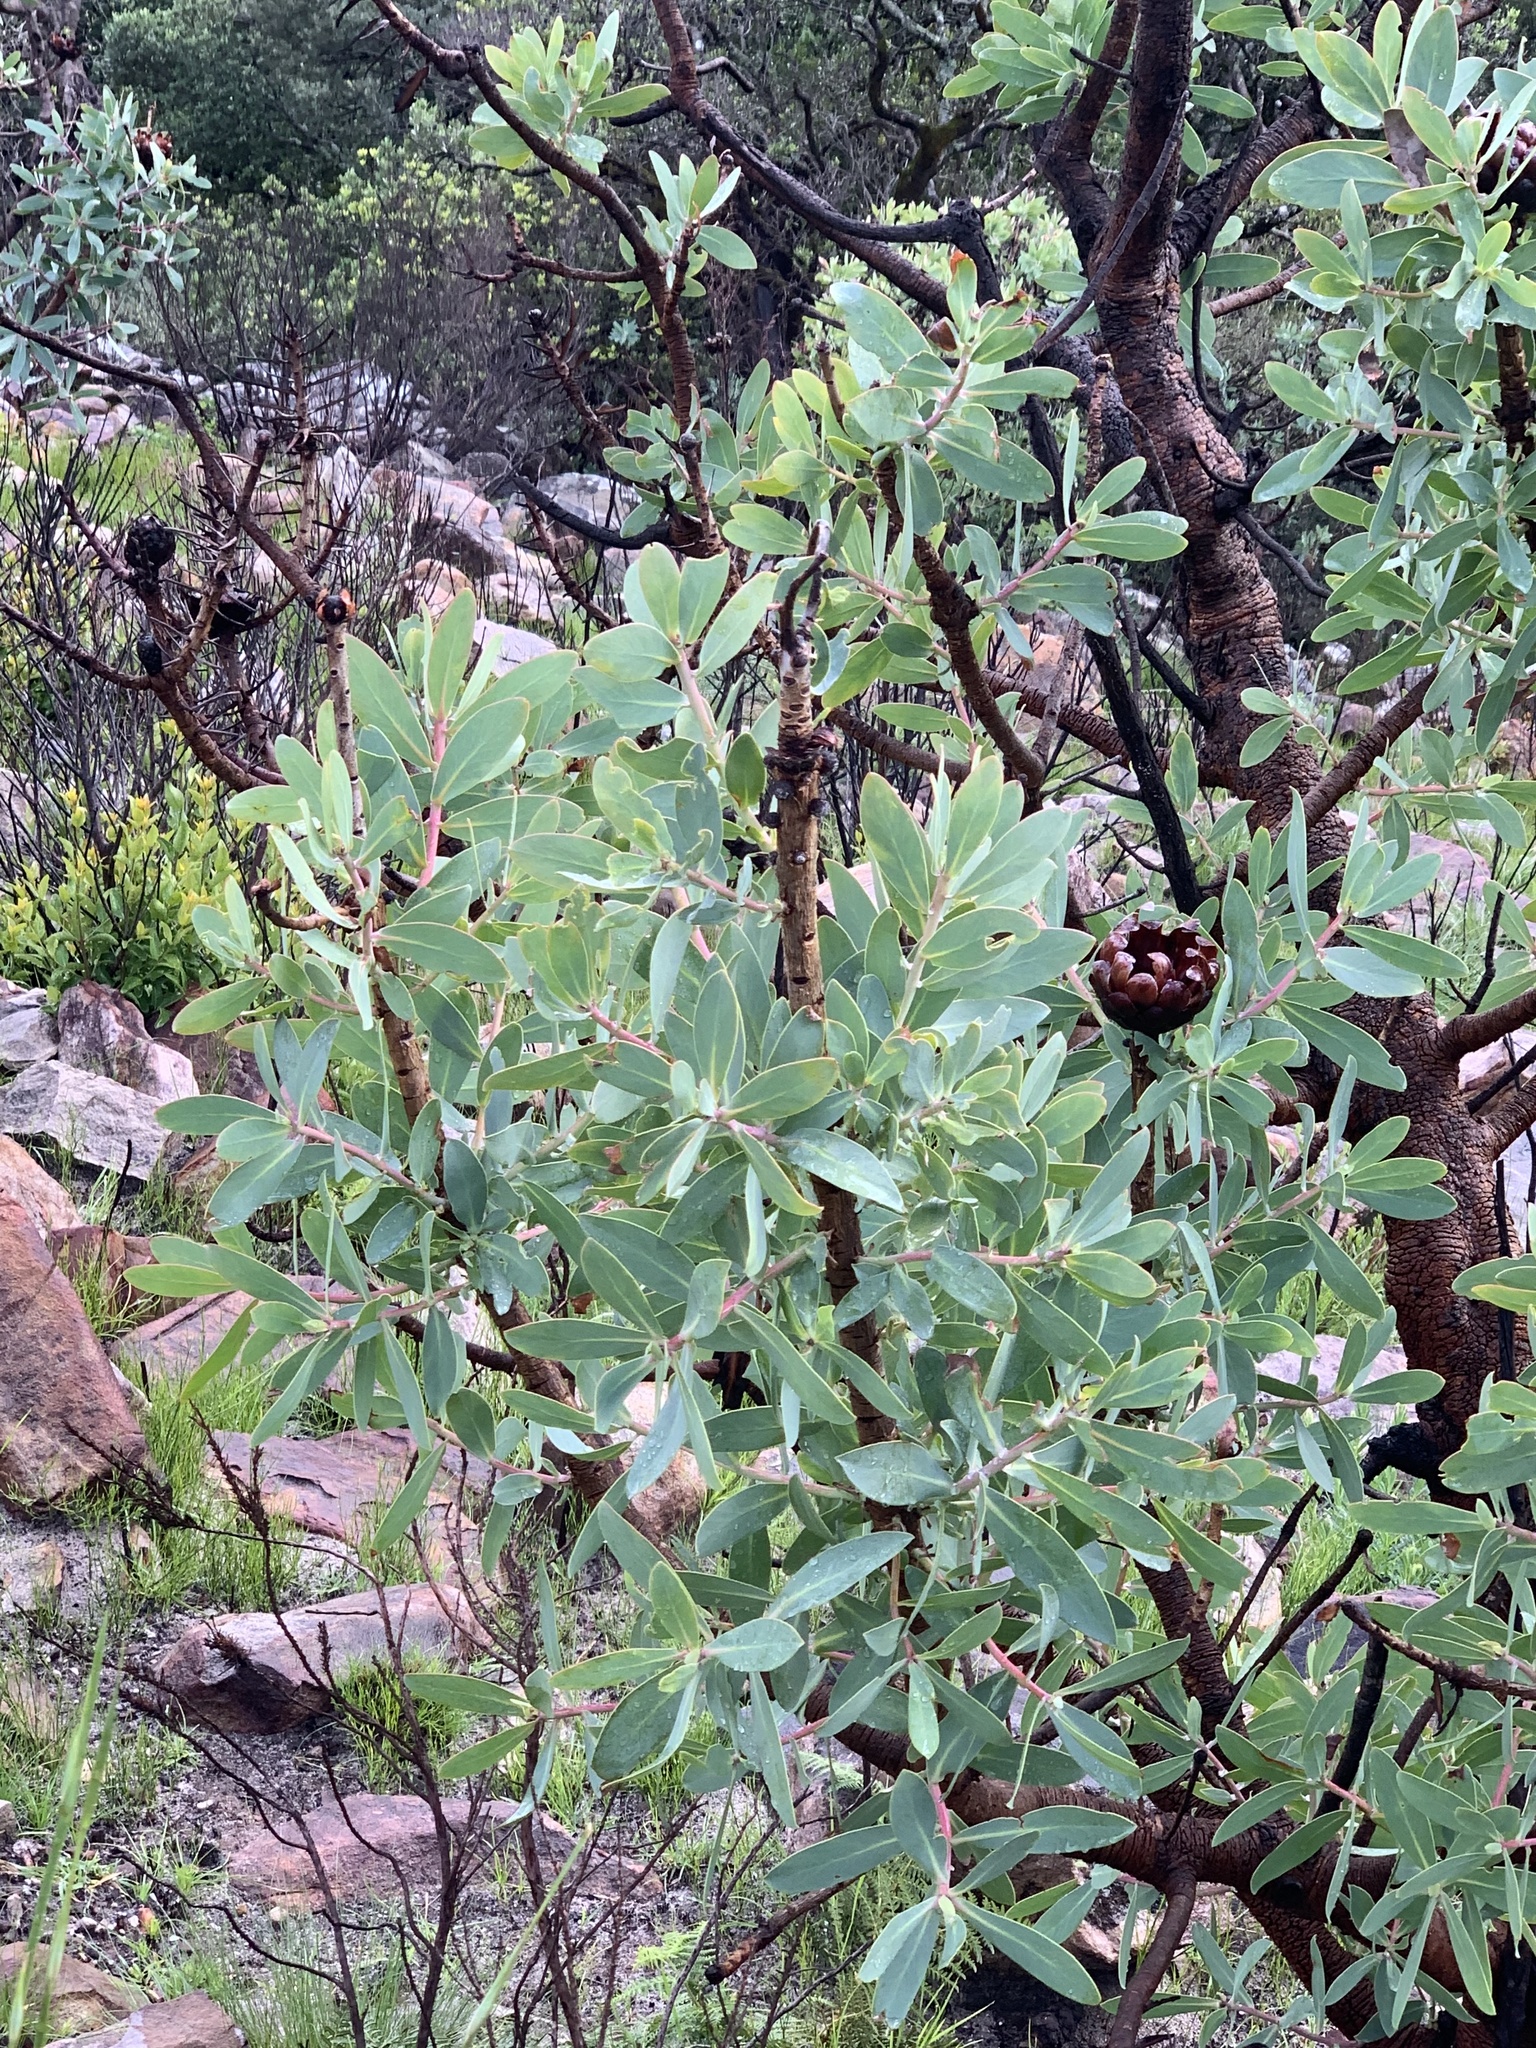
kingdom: Plantae
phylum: Tracheophyta
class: Magnoliopsida
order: Proteales
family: Proteaceae
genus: Protea
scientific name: Protea nitida
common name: Tree protea
